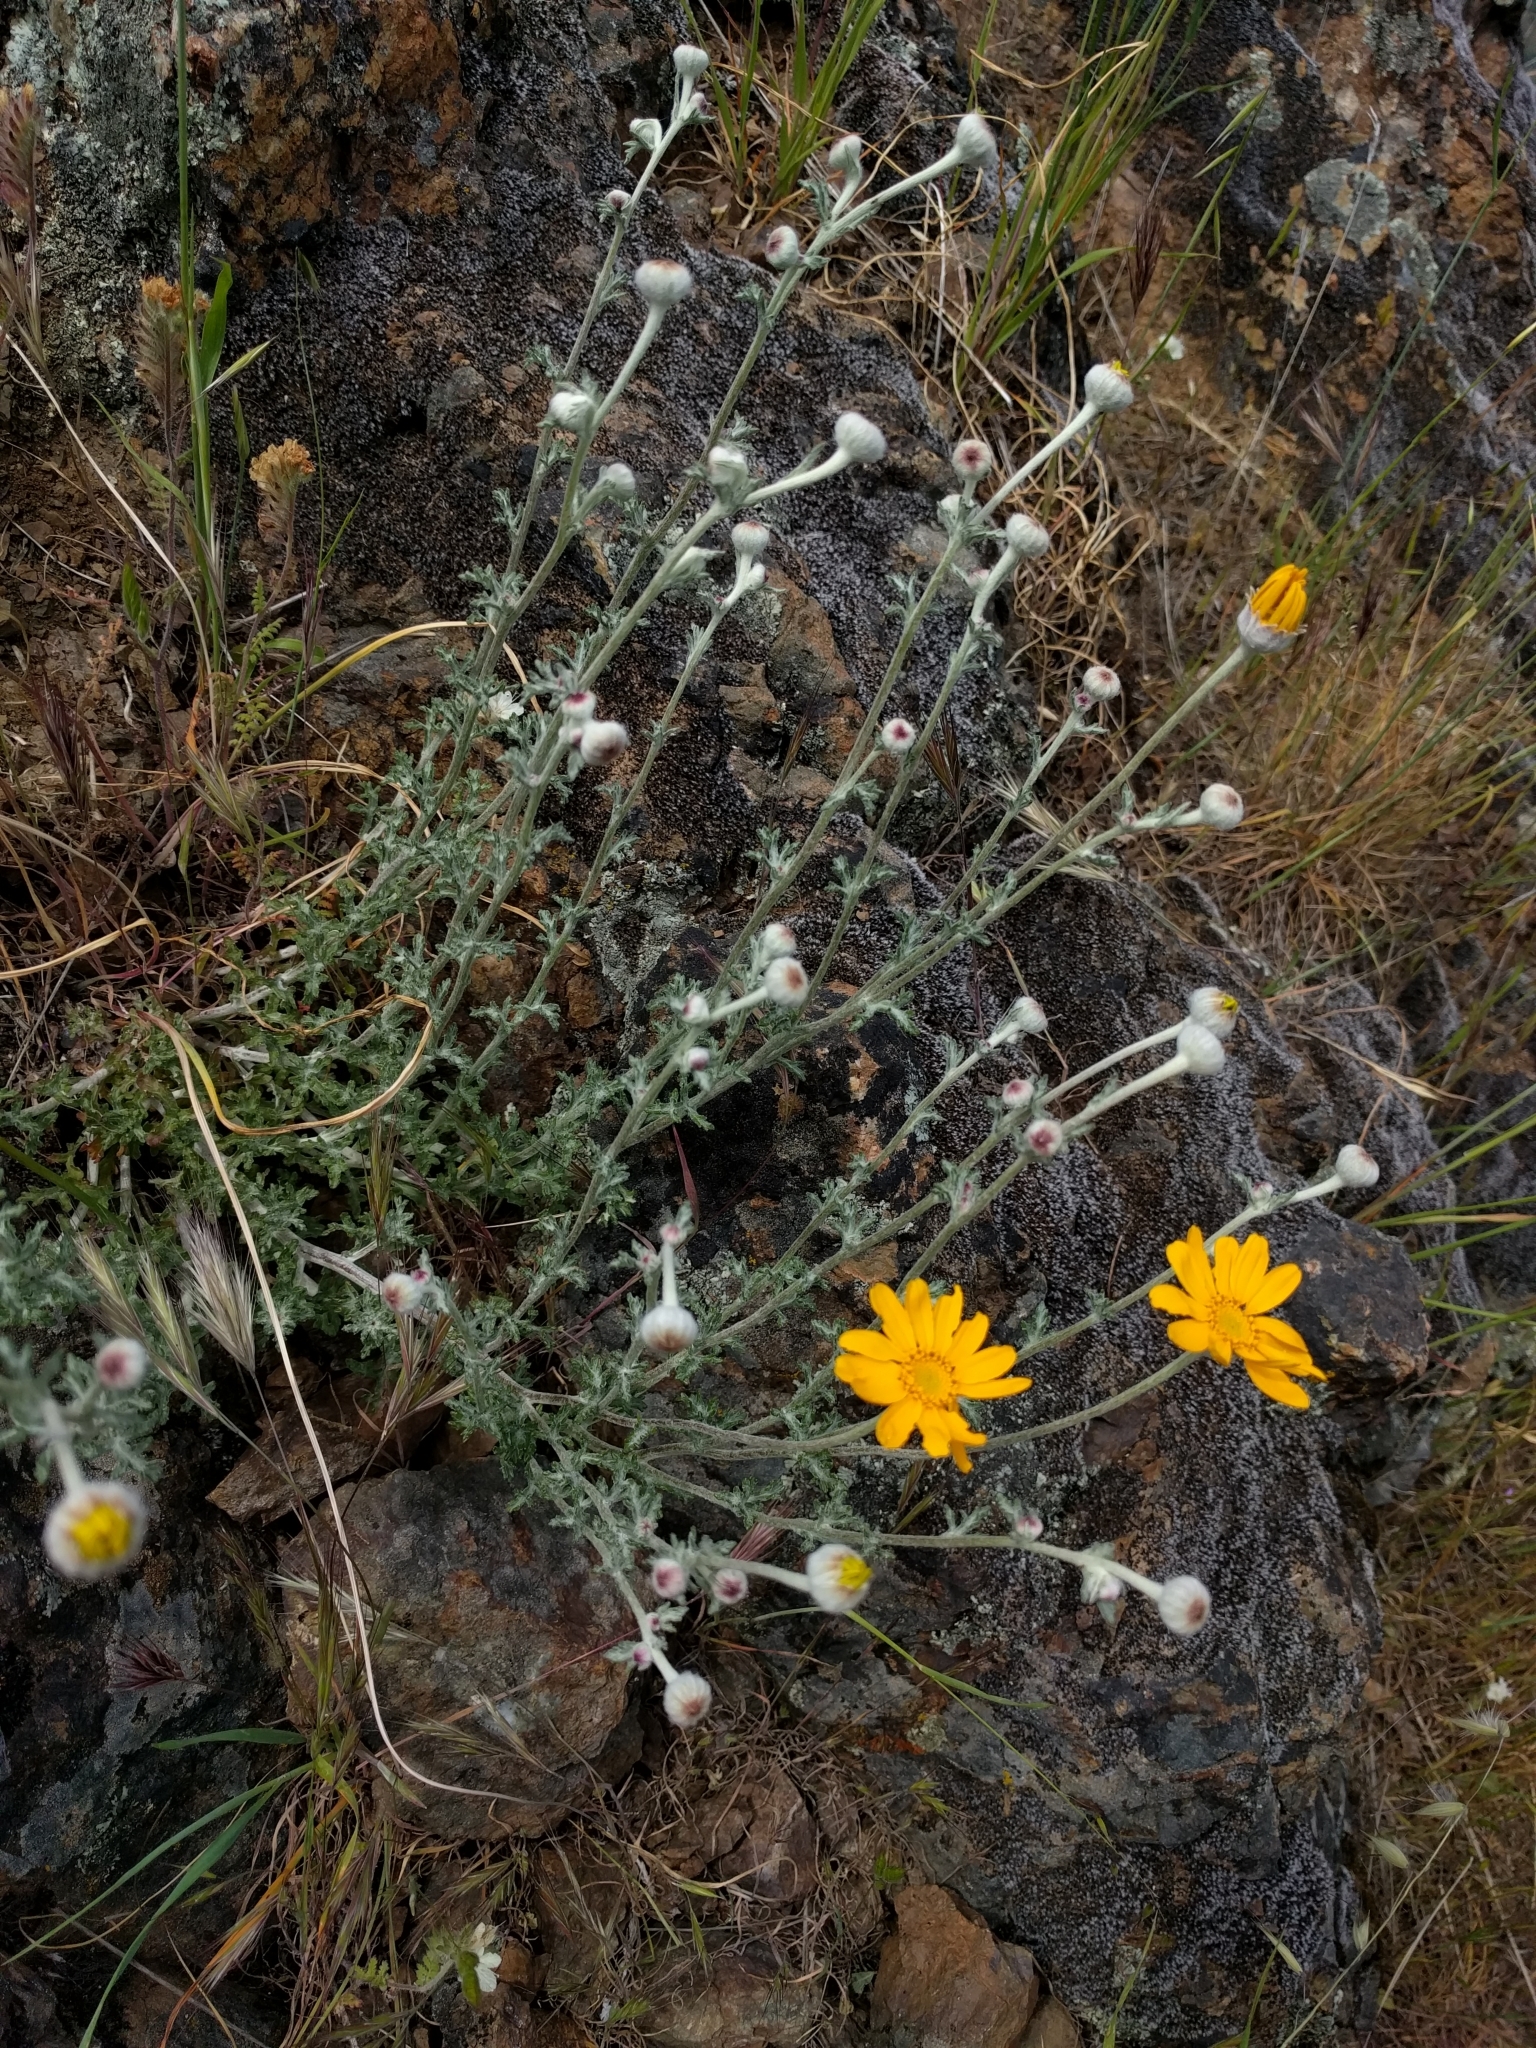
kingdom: Plantae
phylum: Tracheophyta
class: Magnoliopsida
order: Asterales
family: Asteraceae
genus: Eriophyllum
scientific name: Eriophyllum lanatum
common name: Common woolly-sunflower
